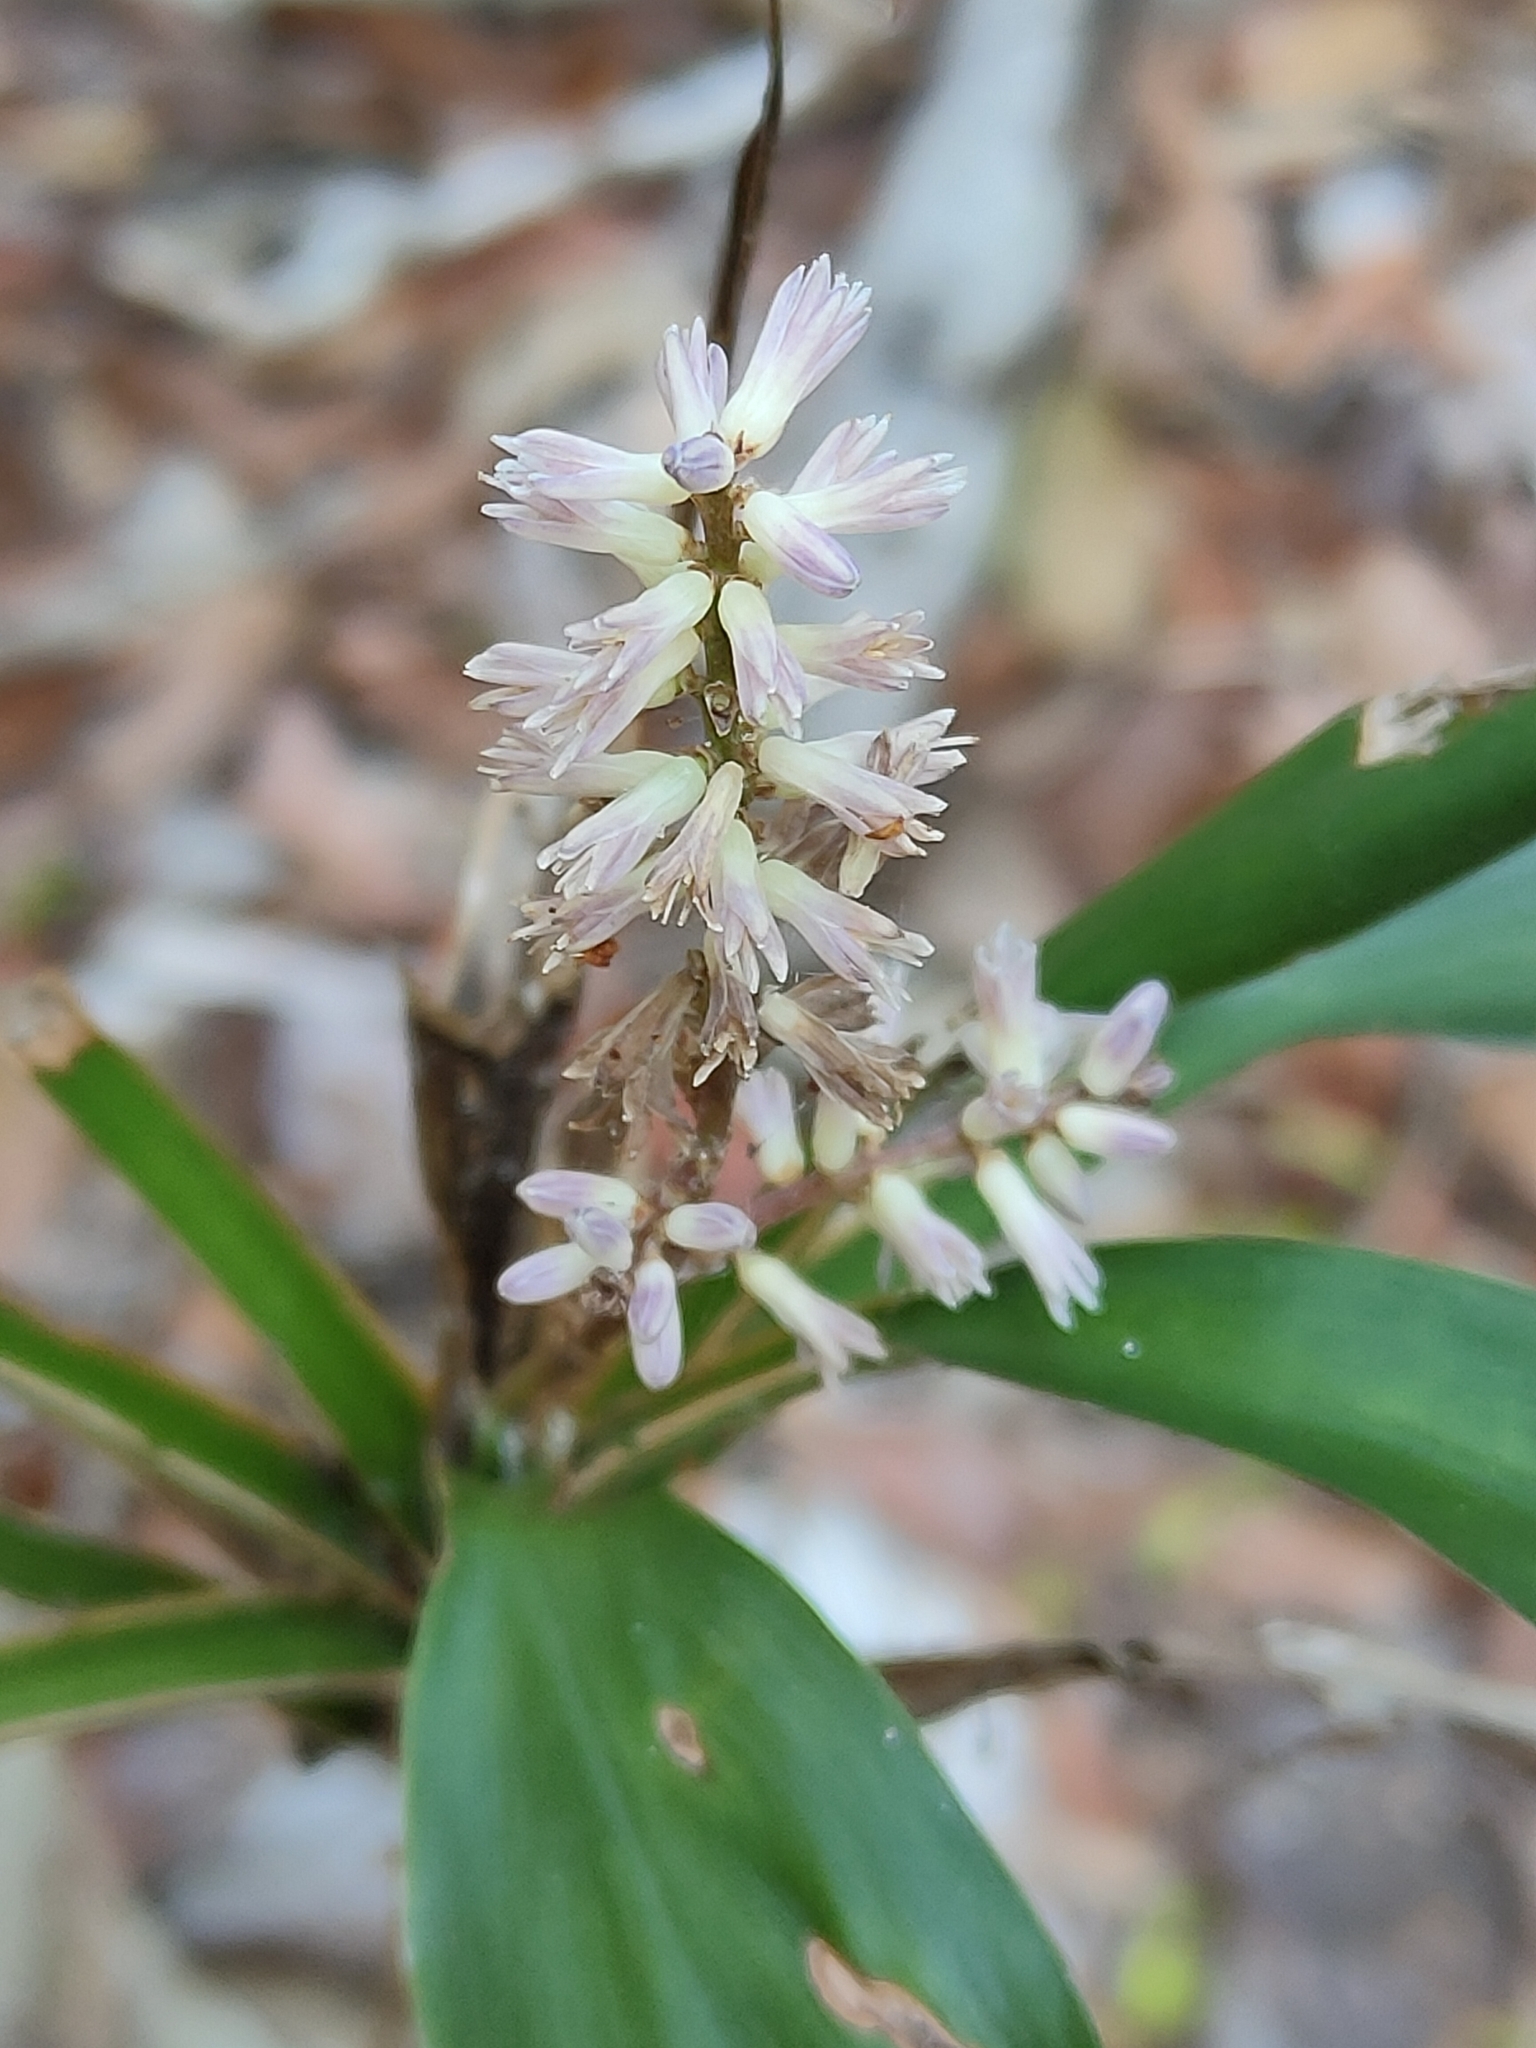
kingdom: Plantae
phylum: Tracheophyta
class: Liliopsida
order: Asparagales
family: Asparagaceae
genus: Cordyline
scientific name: Cordyline rubra
